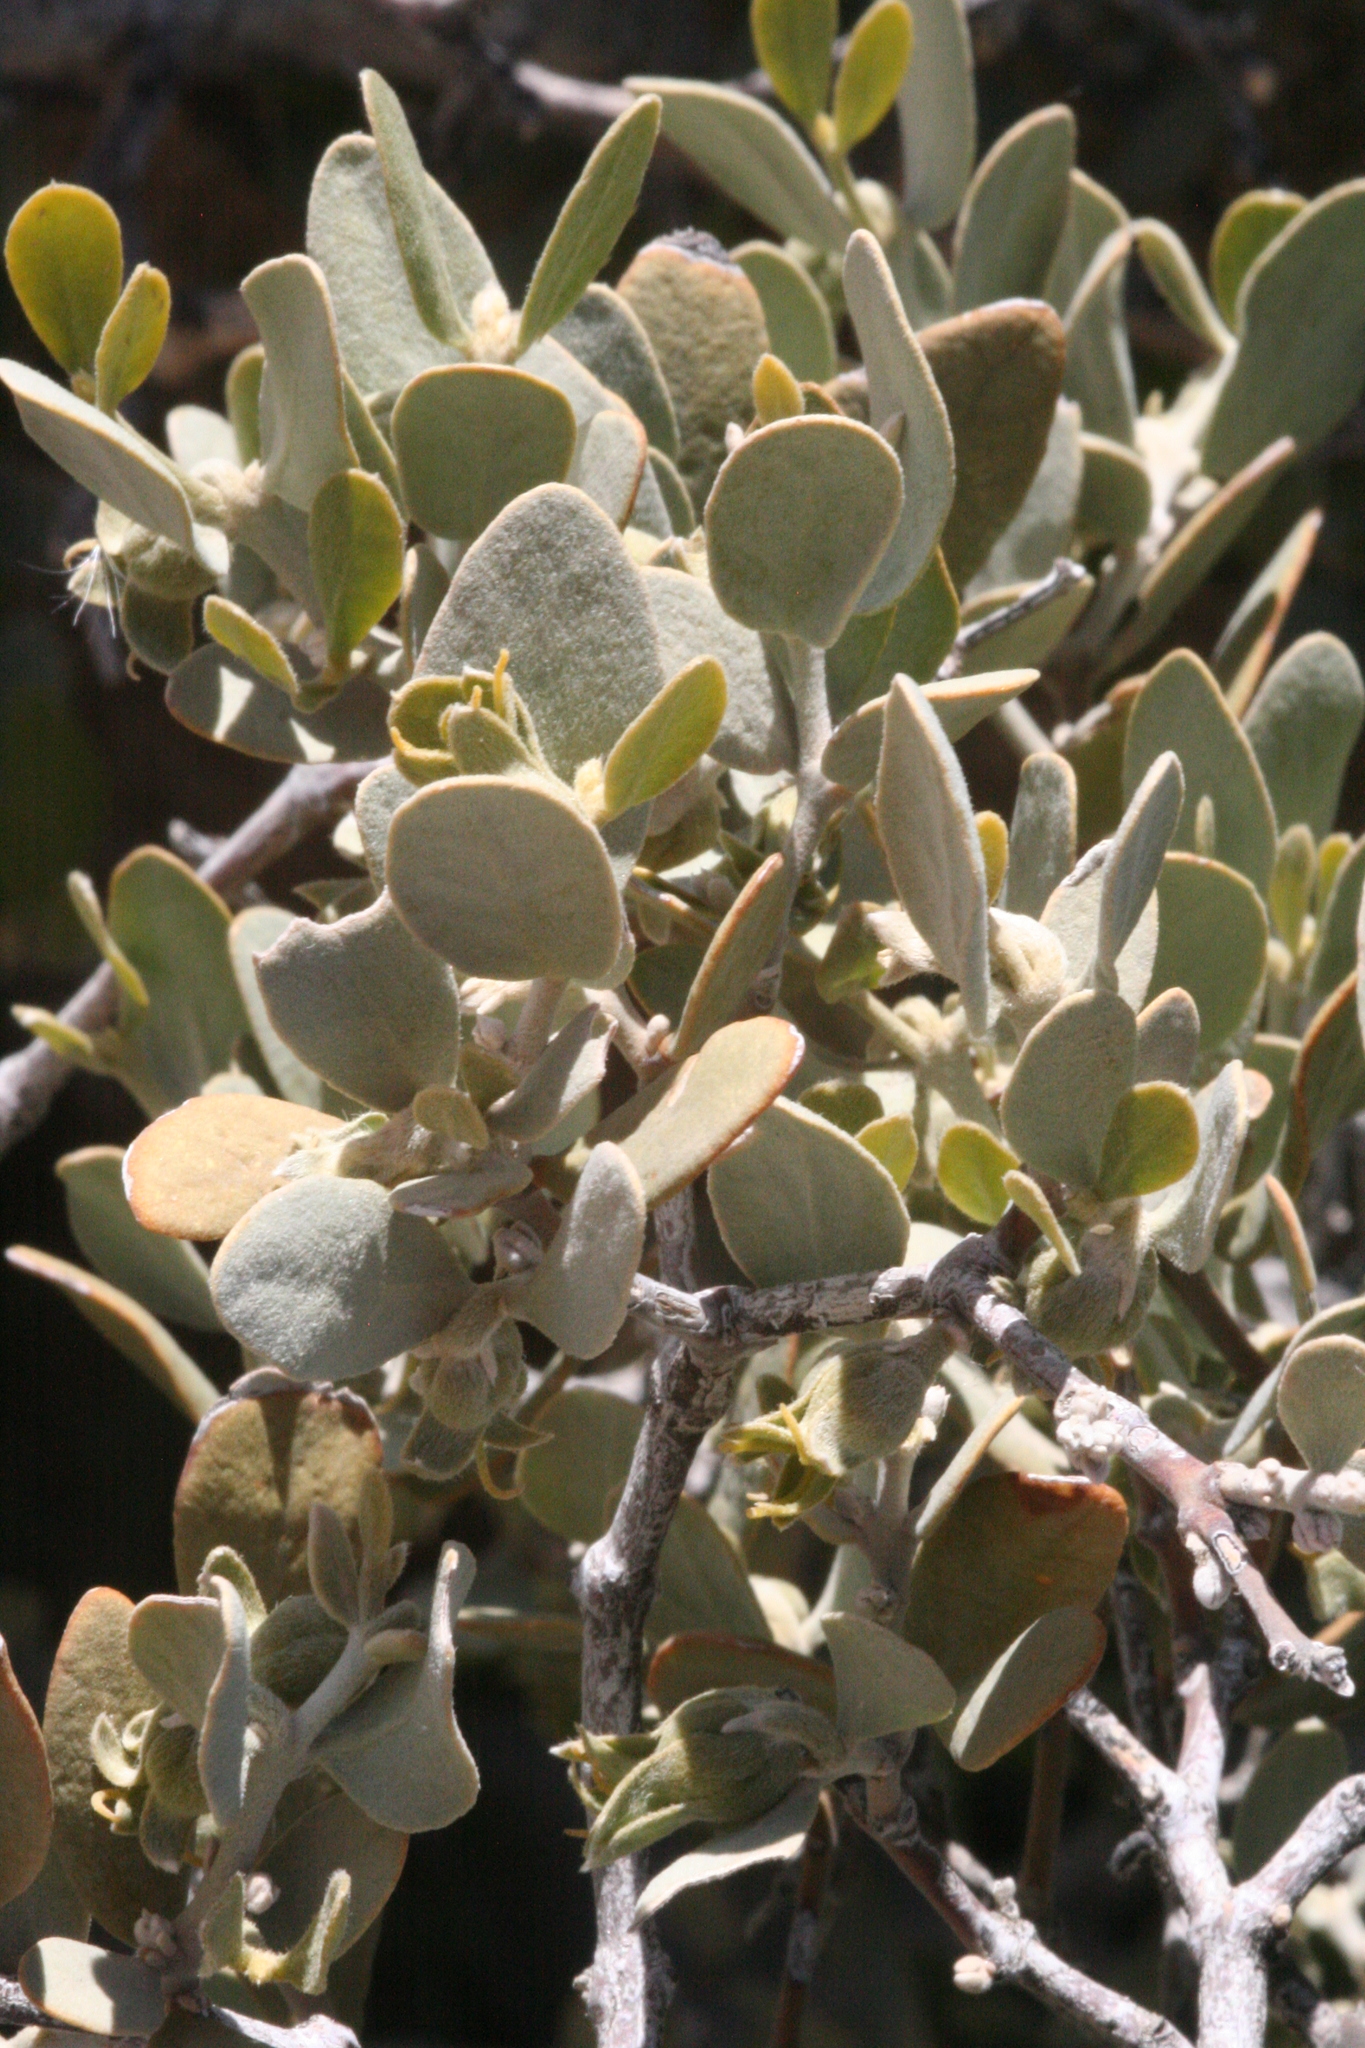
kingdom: Plantae
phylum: Tracheophyta
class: Magnoliopsida
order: Caryophyllales
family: Simmondsiaceae
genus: Simmondsia
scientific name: Simmondsia chinensis
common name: Jojoba
